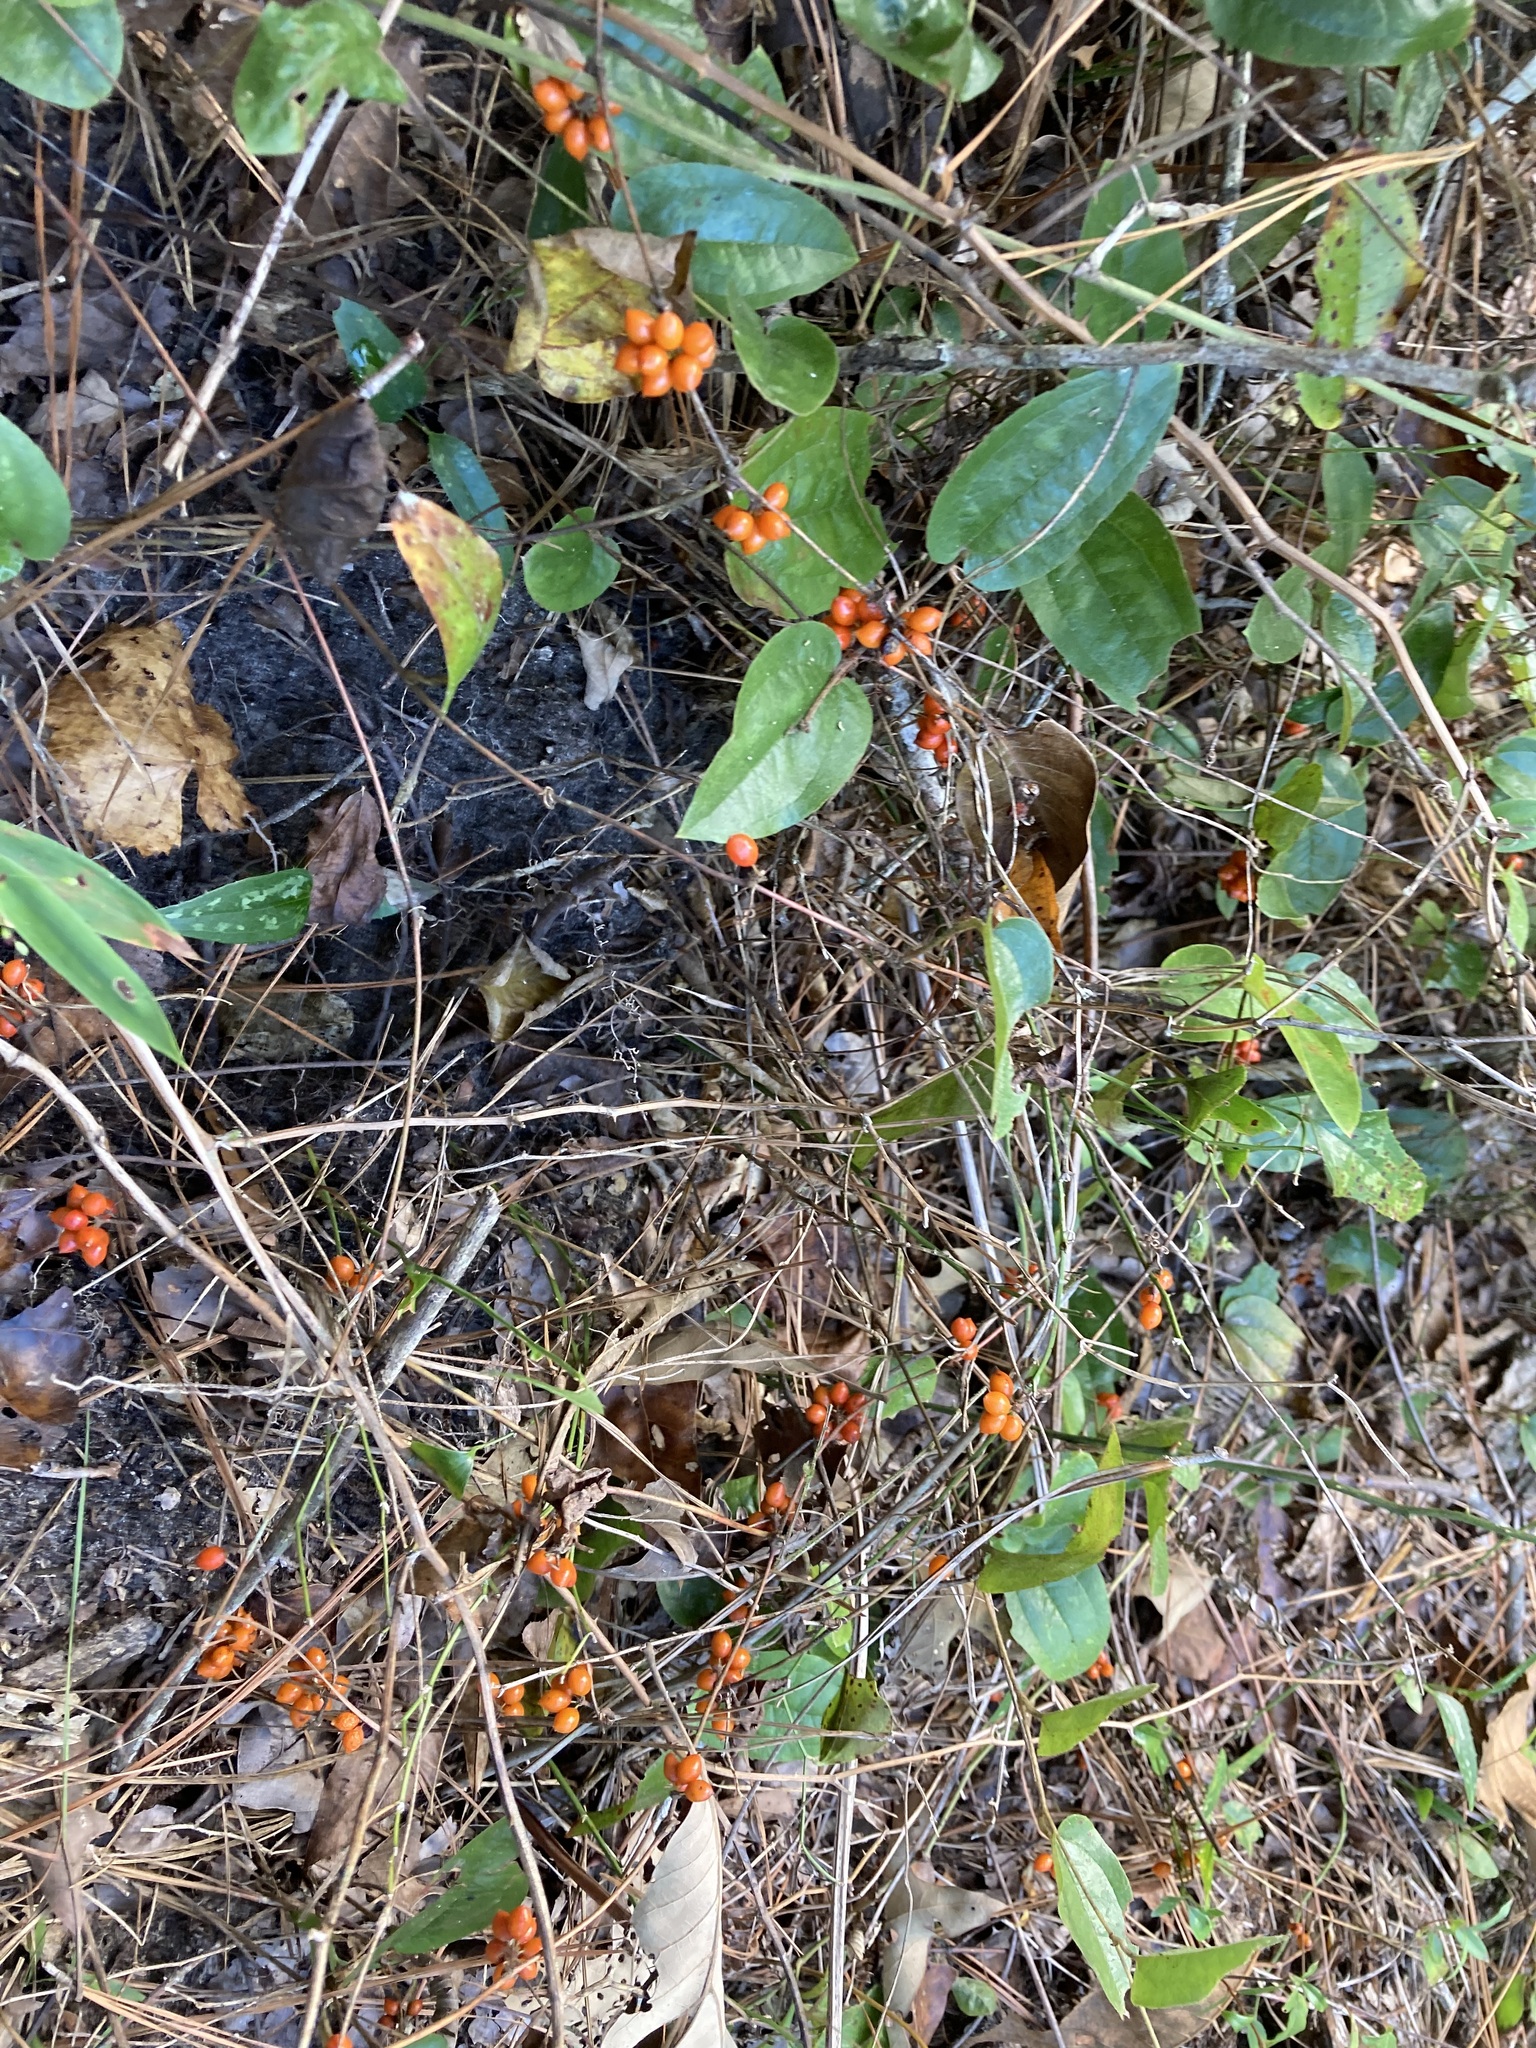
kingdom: Plantae
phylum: Tracheophyta
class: Liliopsida
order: Liliales
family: Smilacaceae
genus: Smilax
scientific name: Smilax pumila
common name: Sarsaparilla-vine
